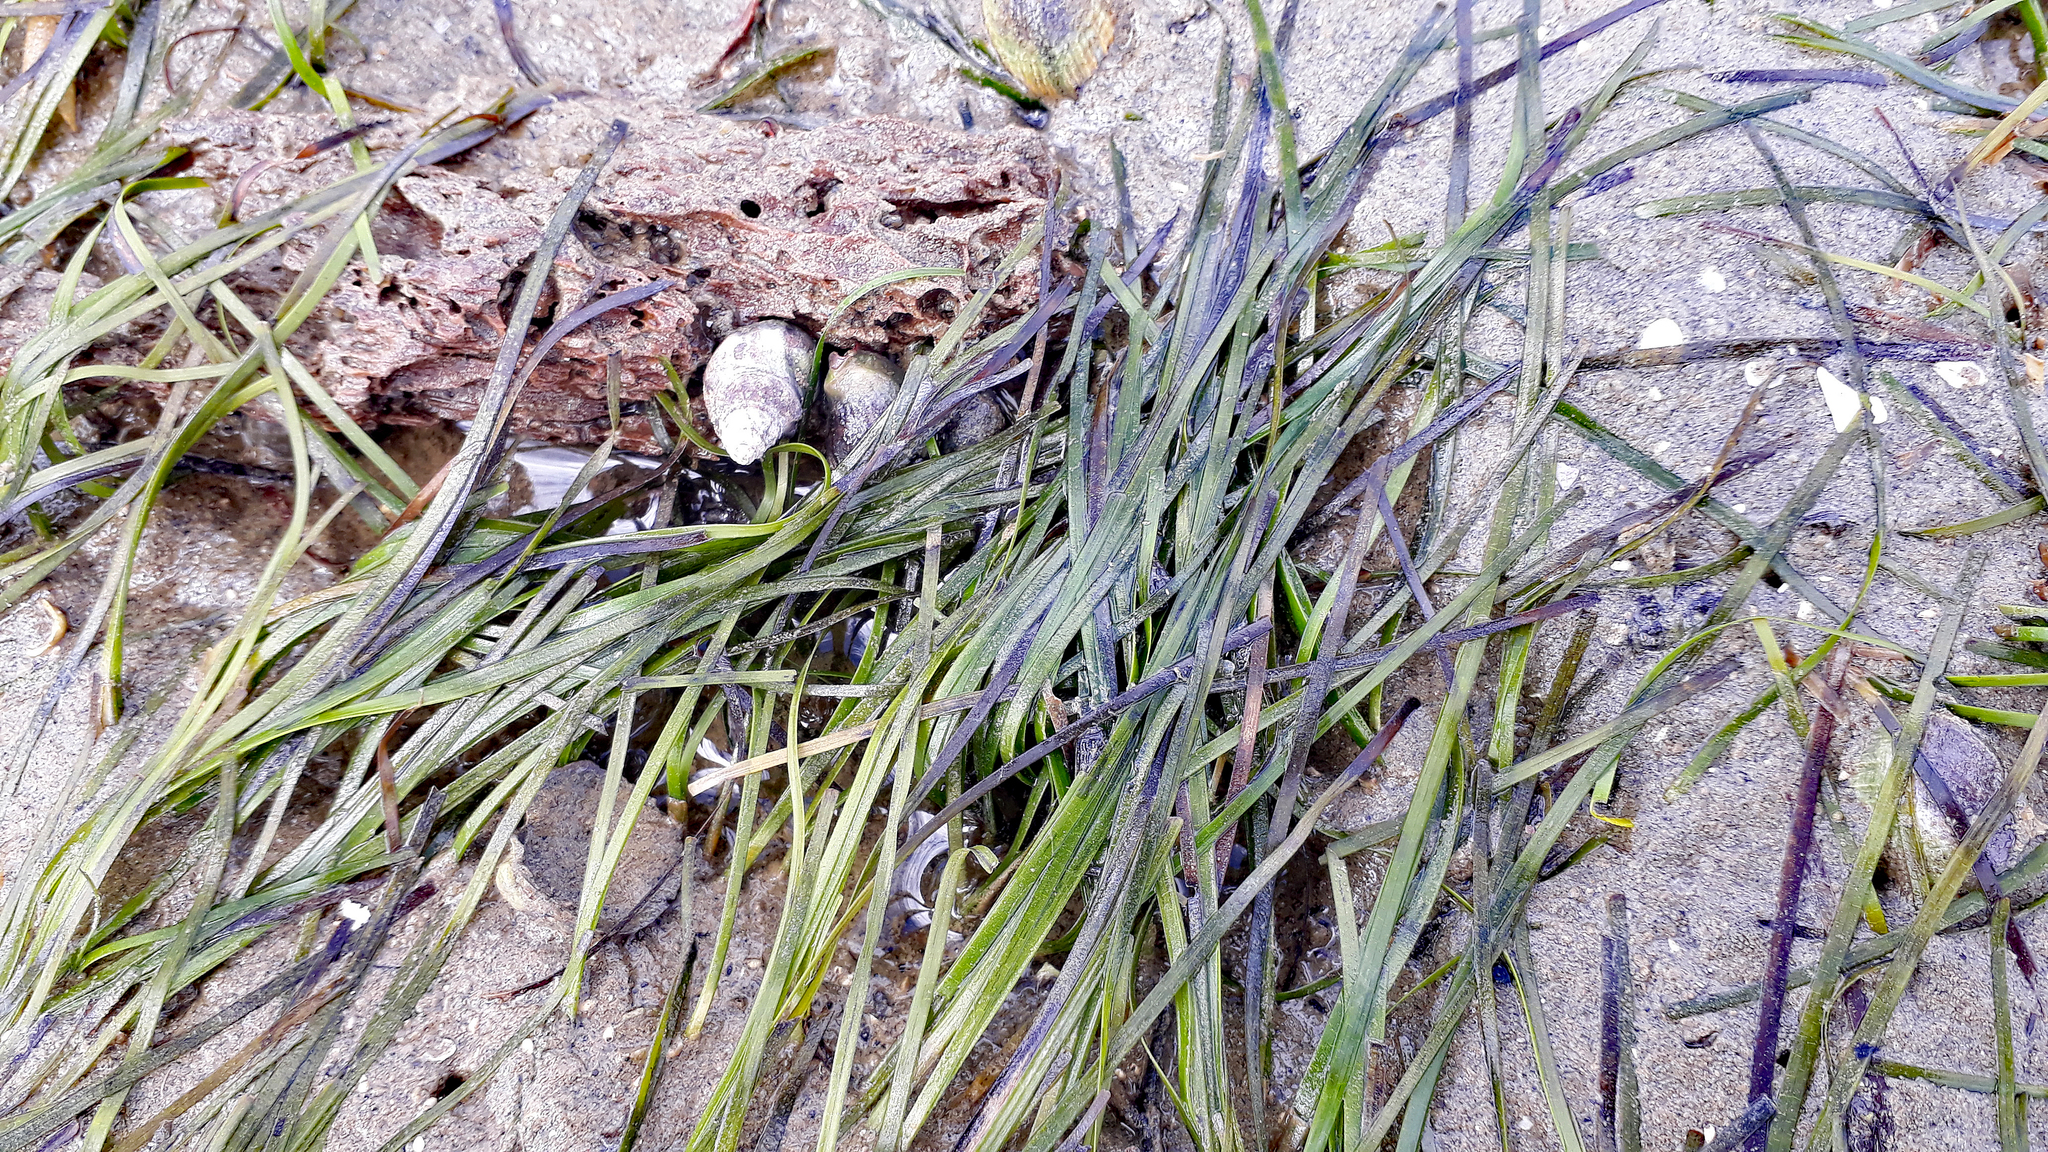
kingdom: Plantae
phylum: Tracheophyta
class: Liliopsida
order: Alismatales
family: Zosteraceae
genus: Zostera
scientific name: Zostera novazelandica
